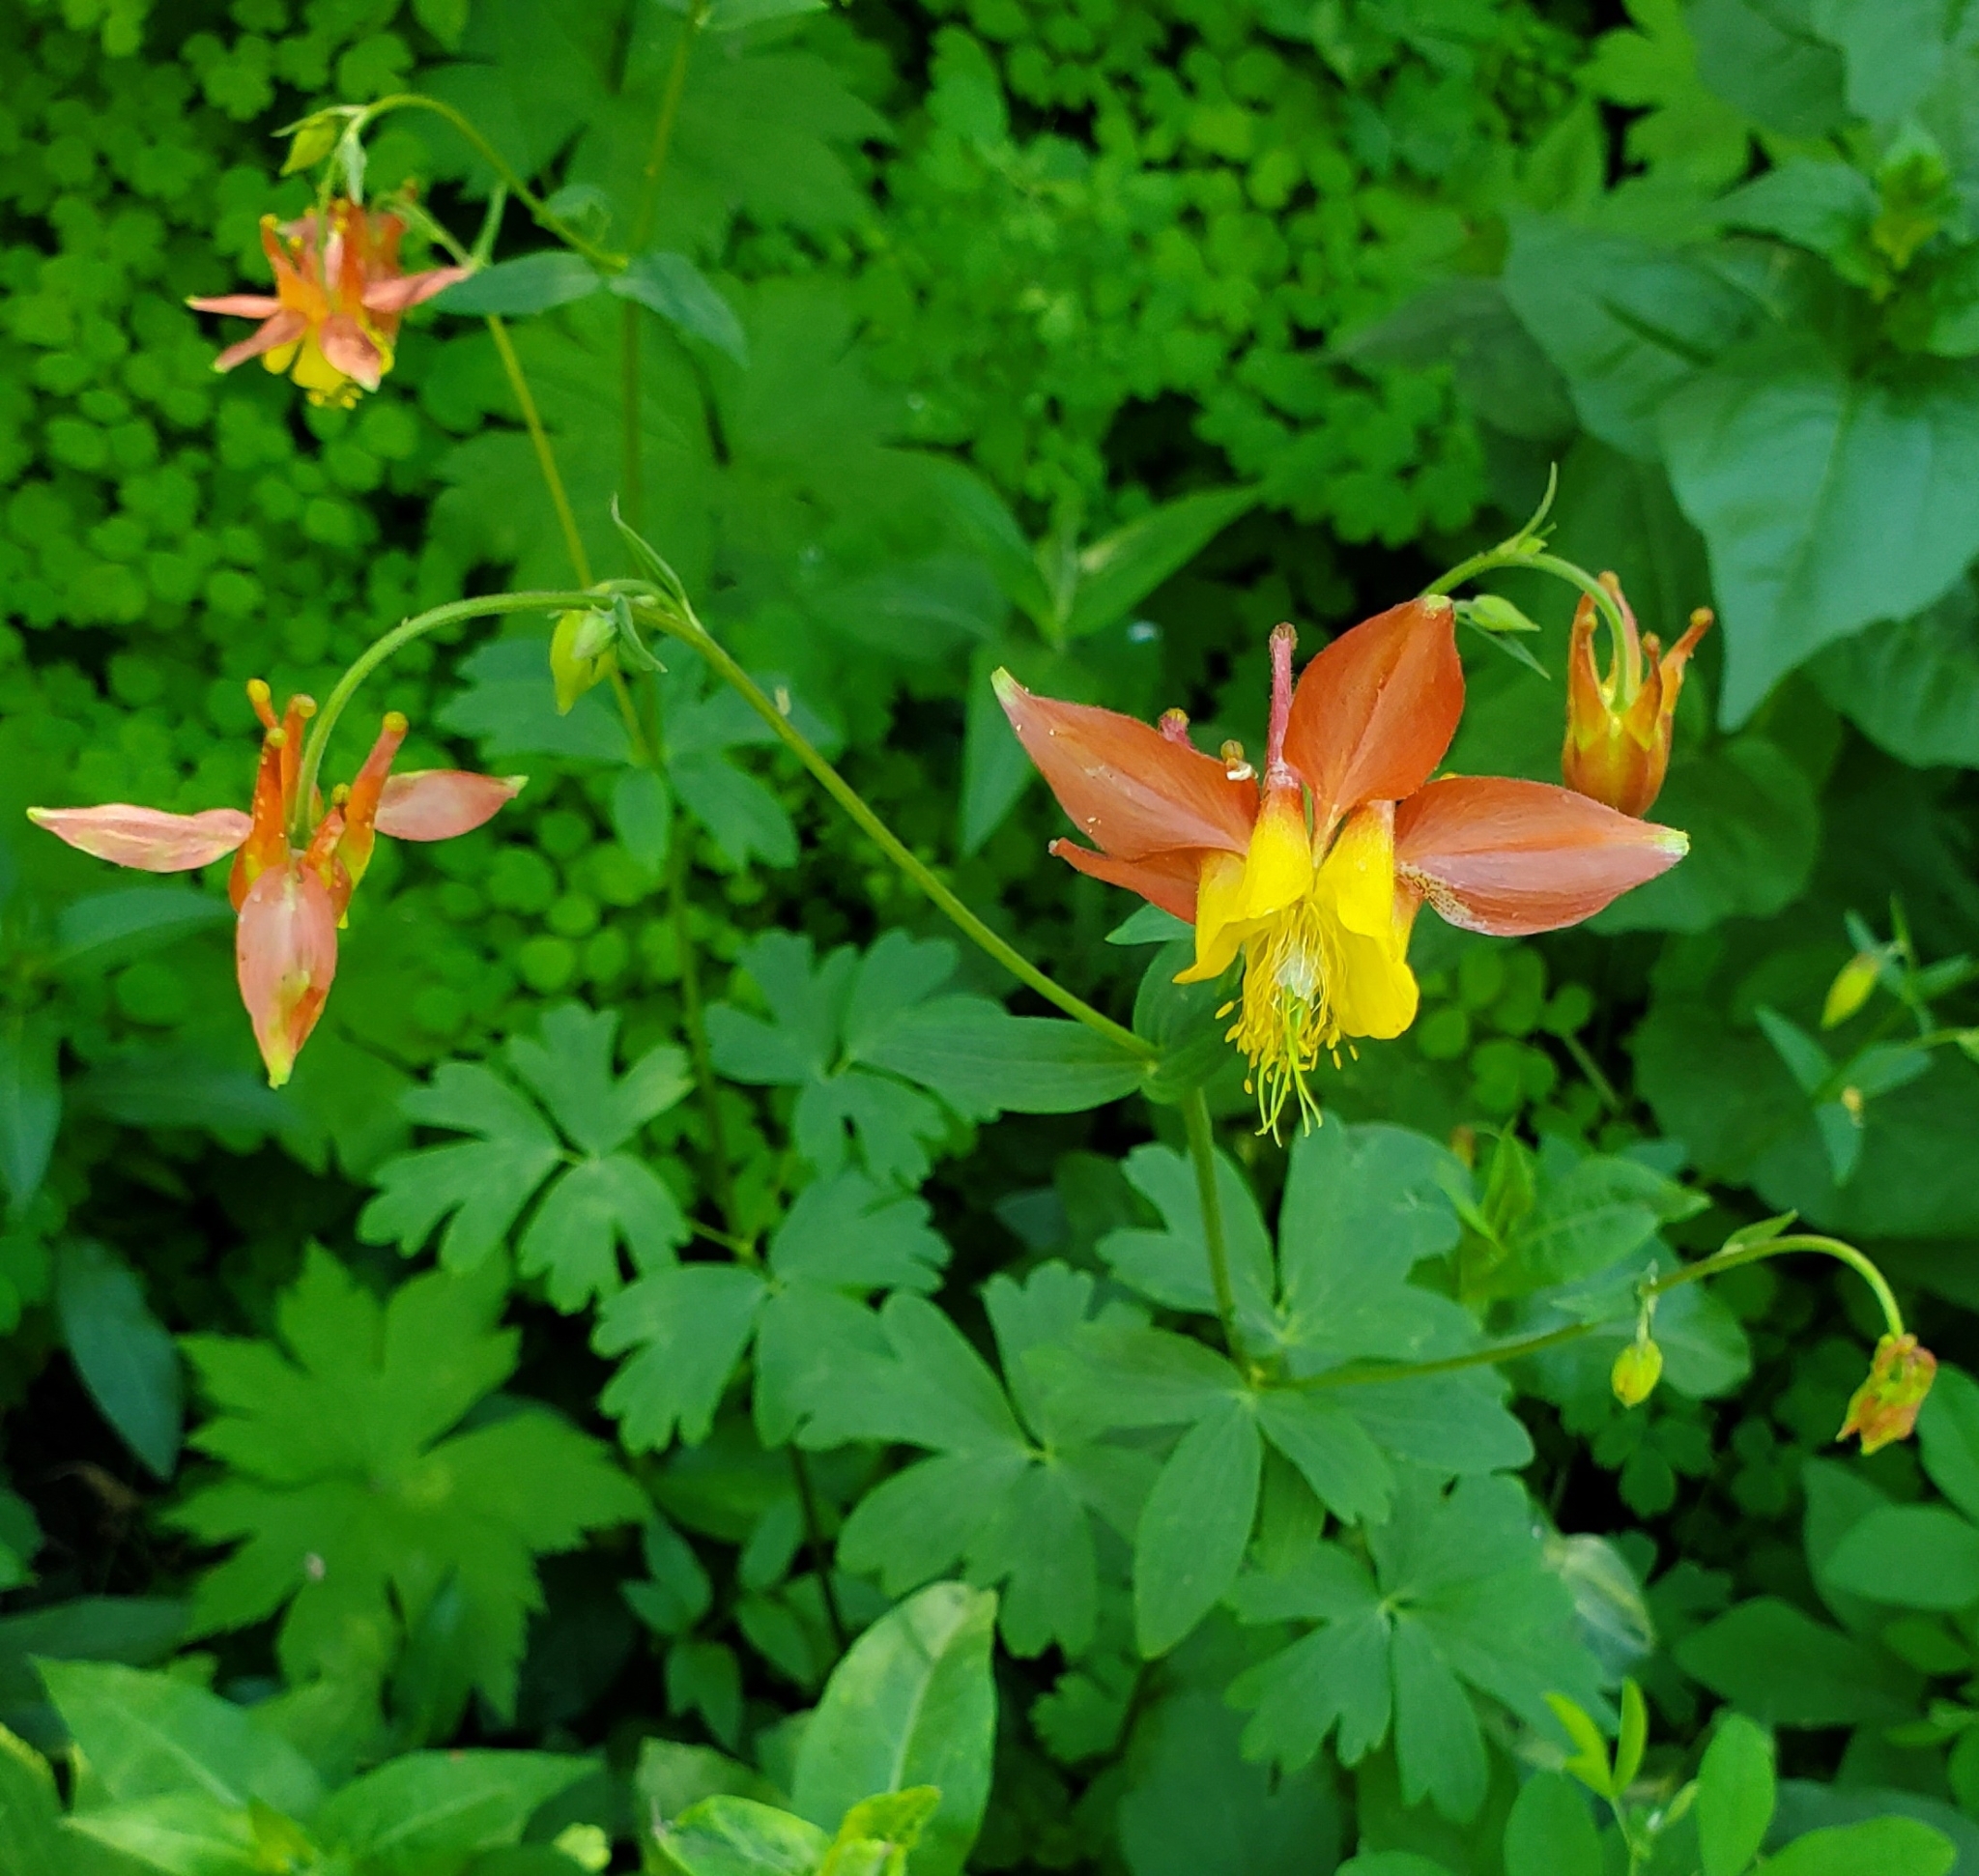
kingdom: Plantae
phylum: Tracheophyta
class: Magnoliopsida
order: Ranunculales
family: Ranunculaceae
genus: Aquilegia
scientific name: Aquilegia formosa
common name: Sitka columbine
